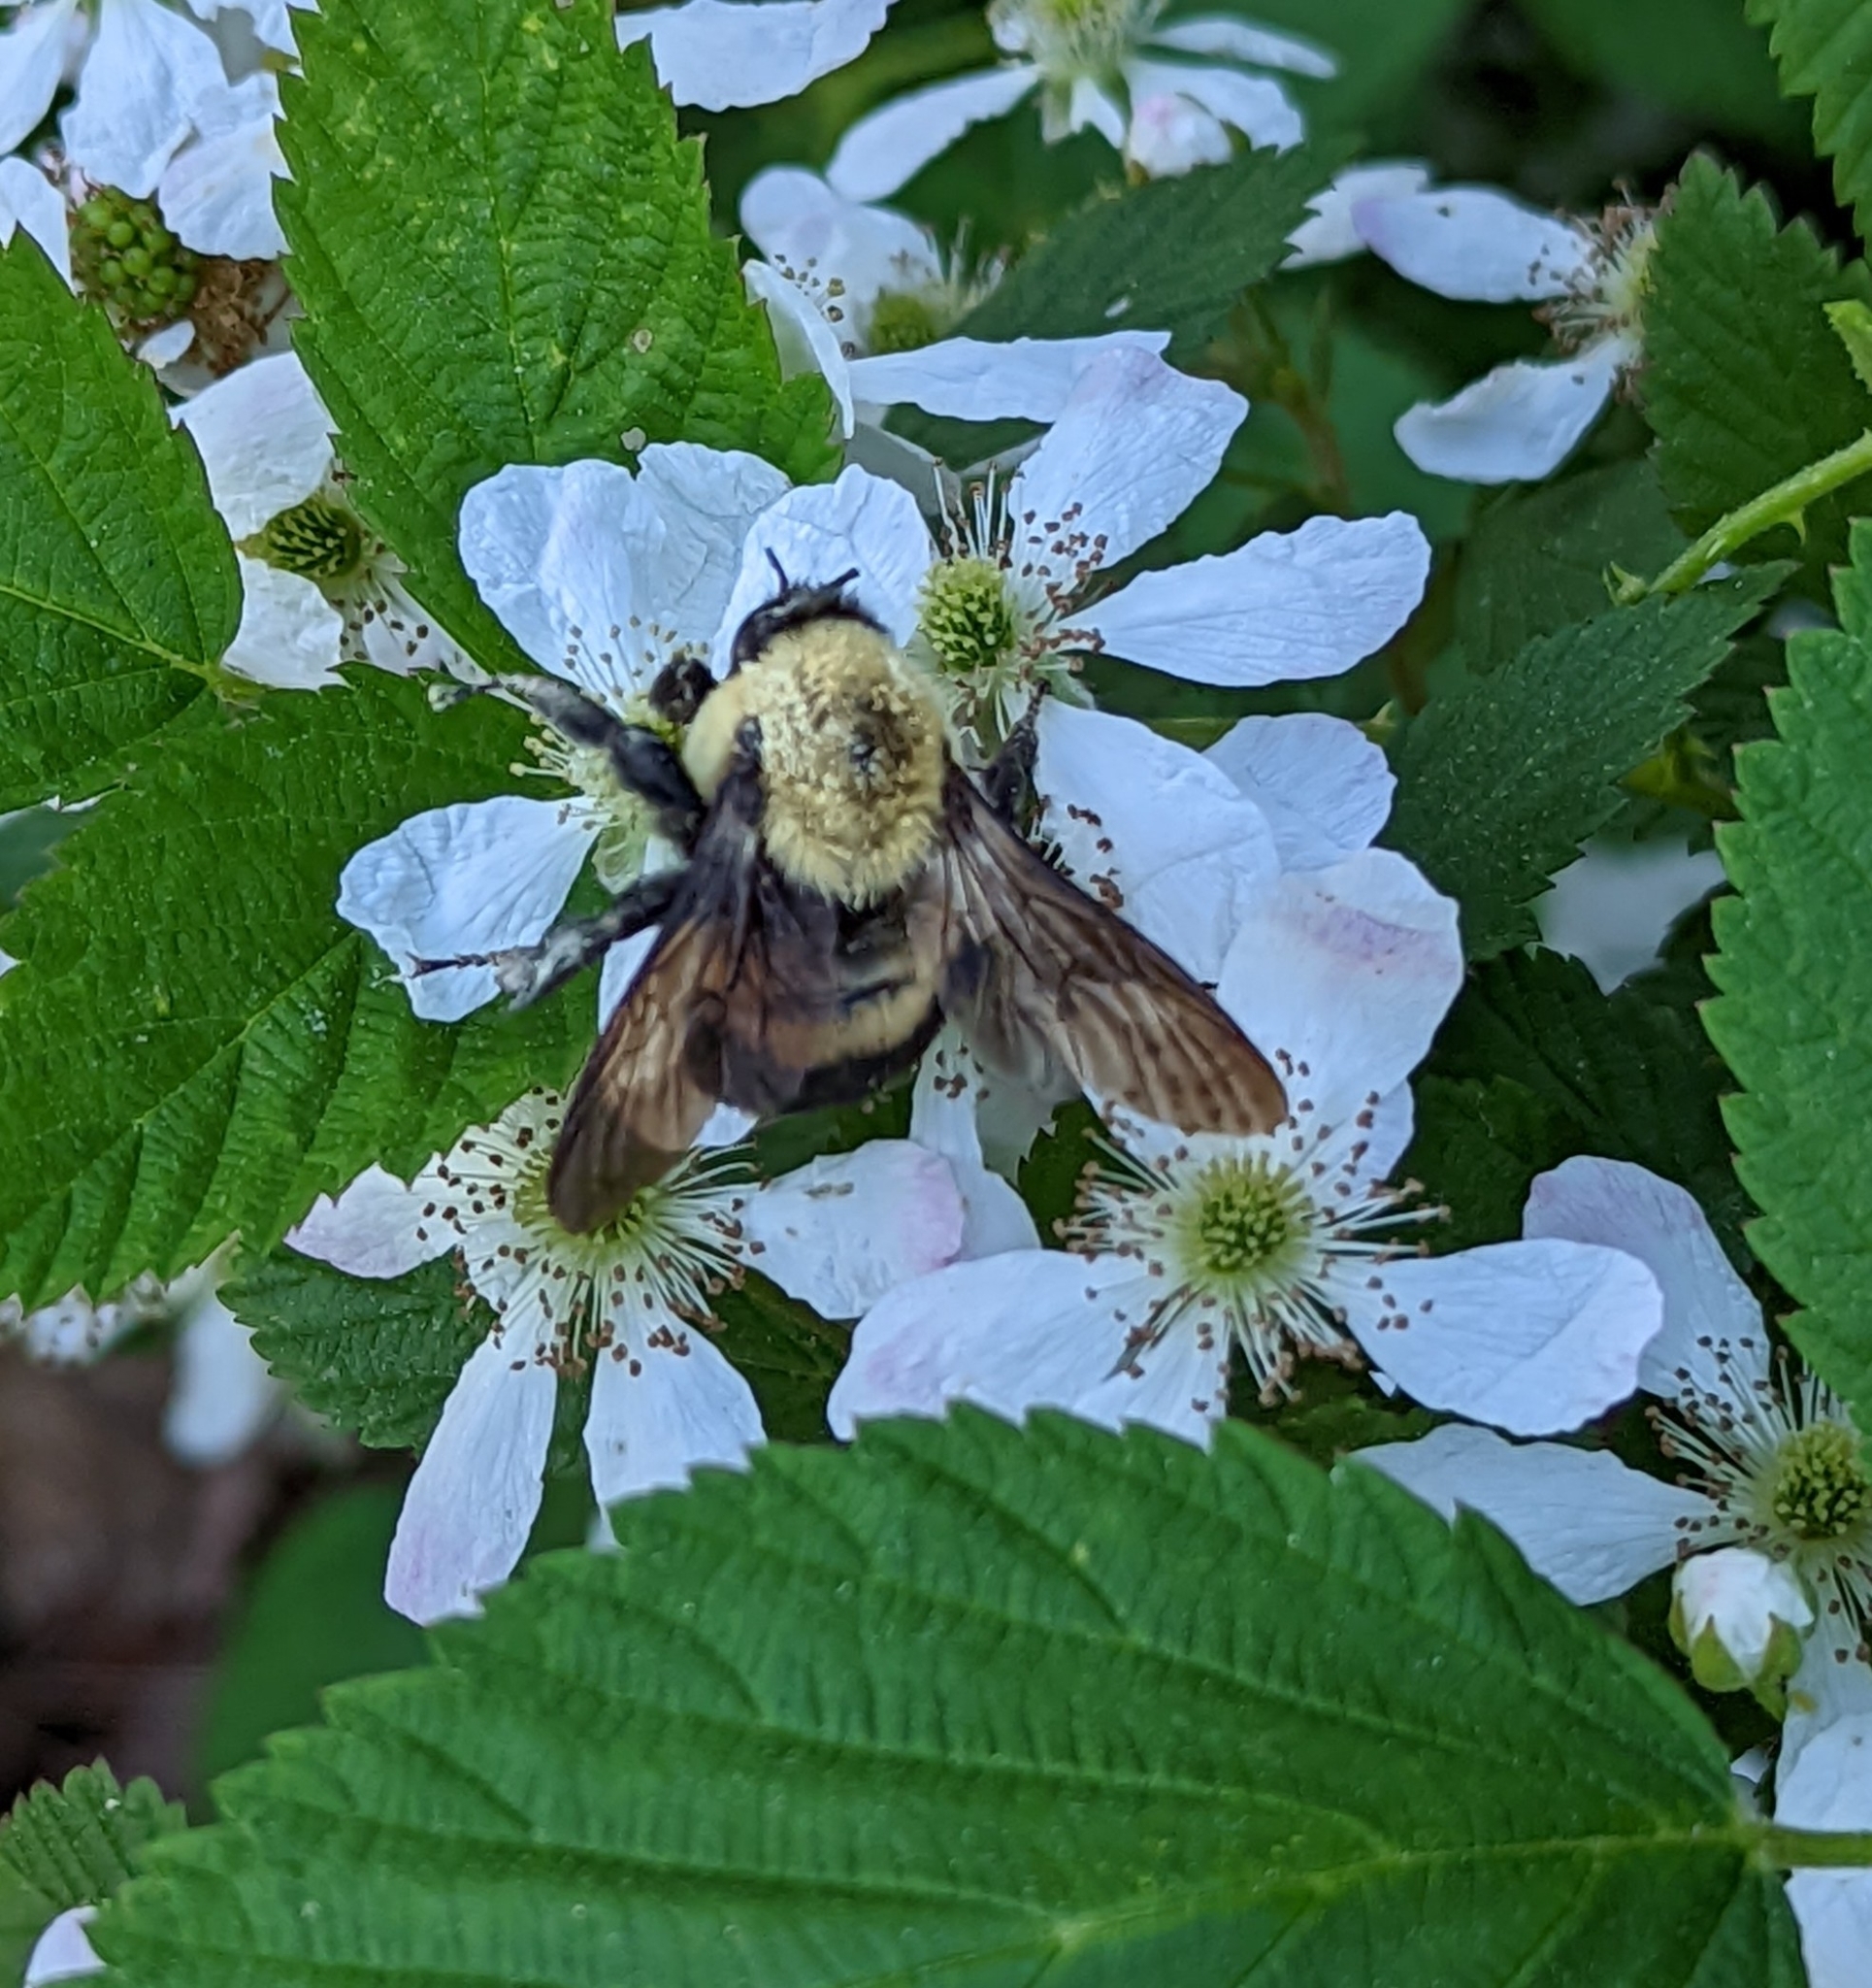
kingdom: Animalia
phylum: Arthropoda
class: Insecta
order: Hymenoptera
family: Apidae
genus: Bombus
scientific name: Bombus griseocollis
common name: Brown-belted bumble bee
